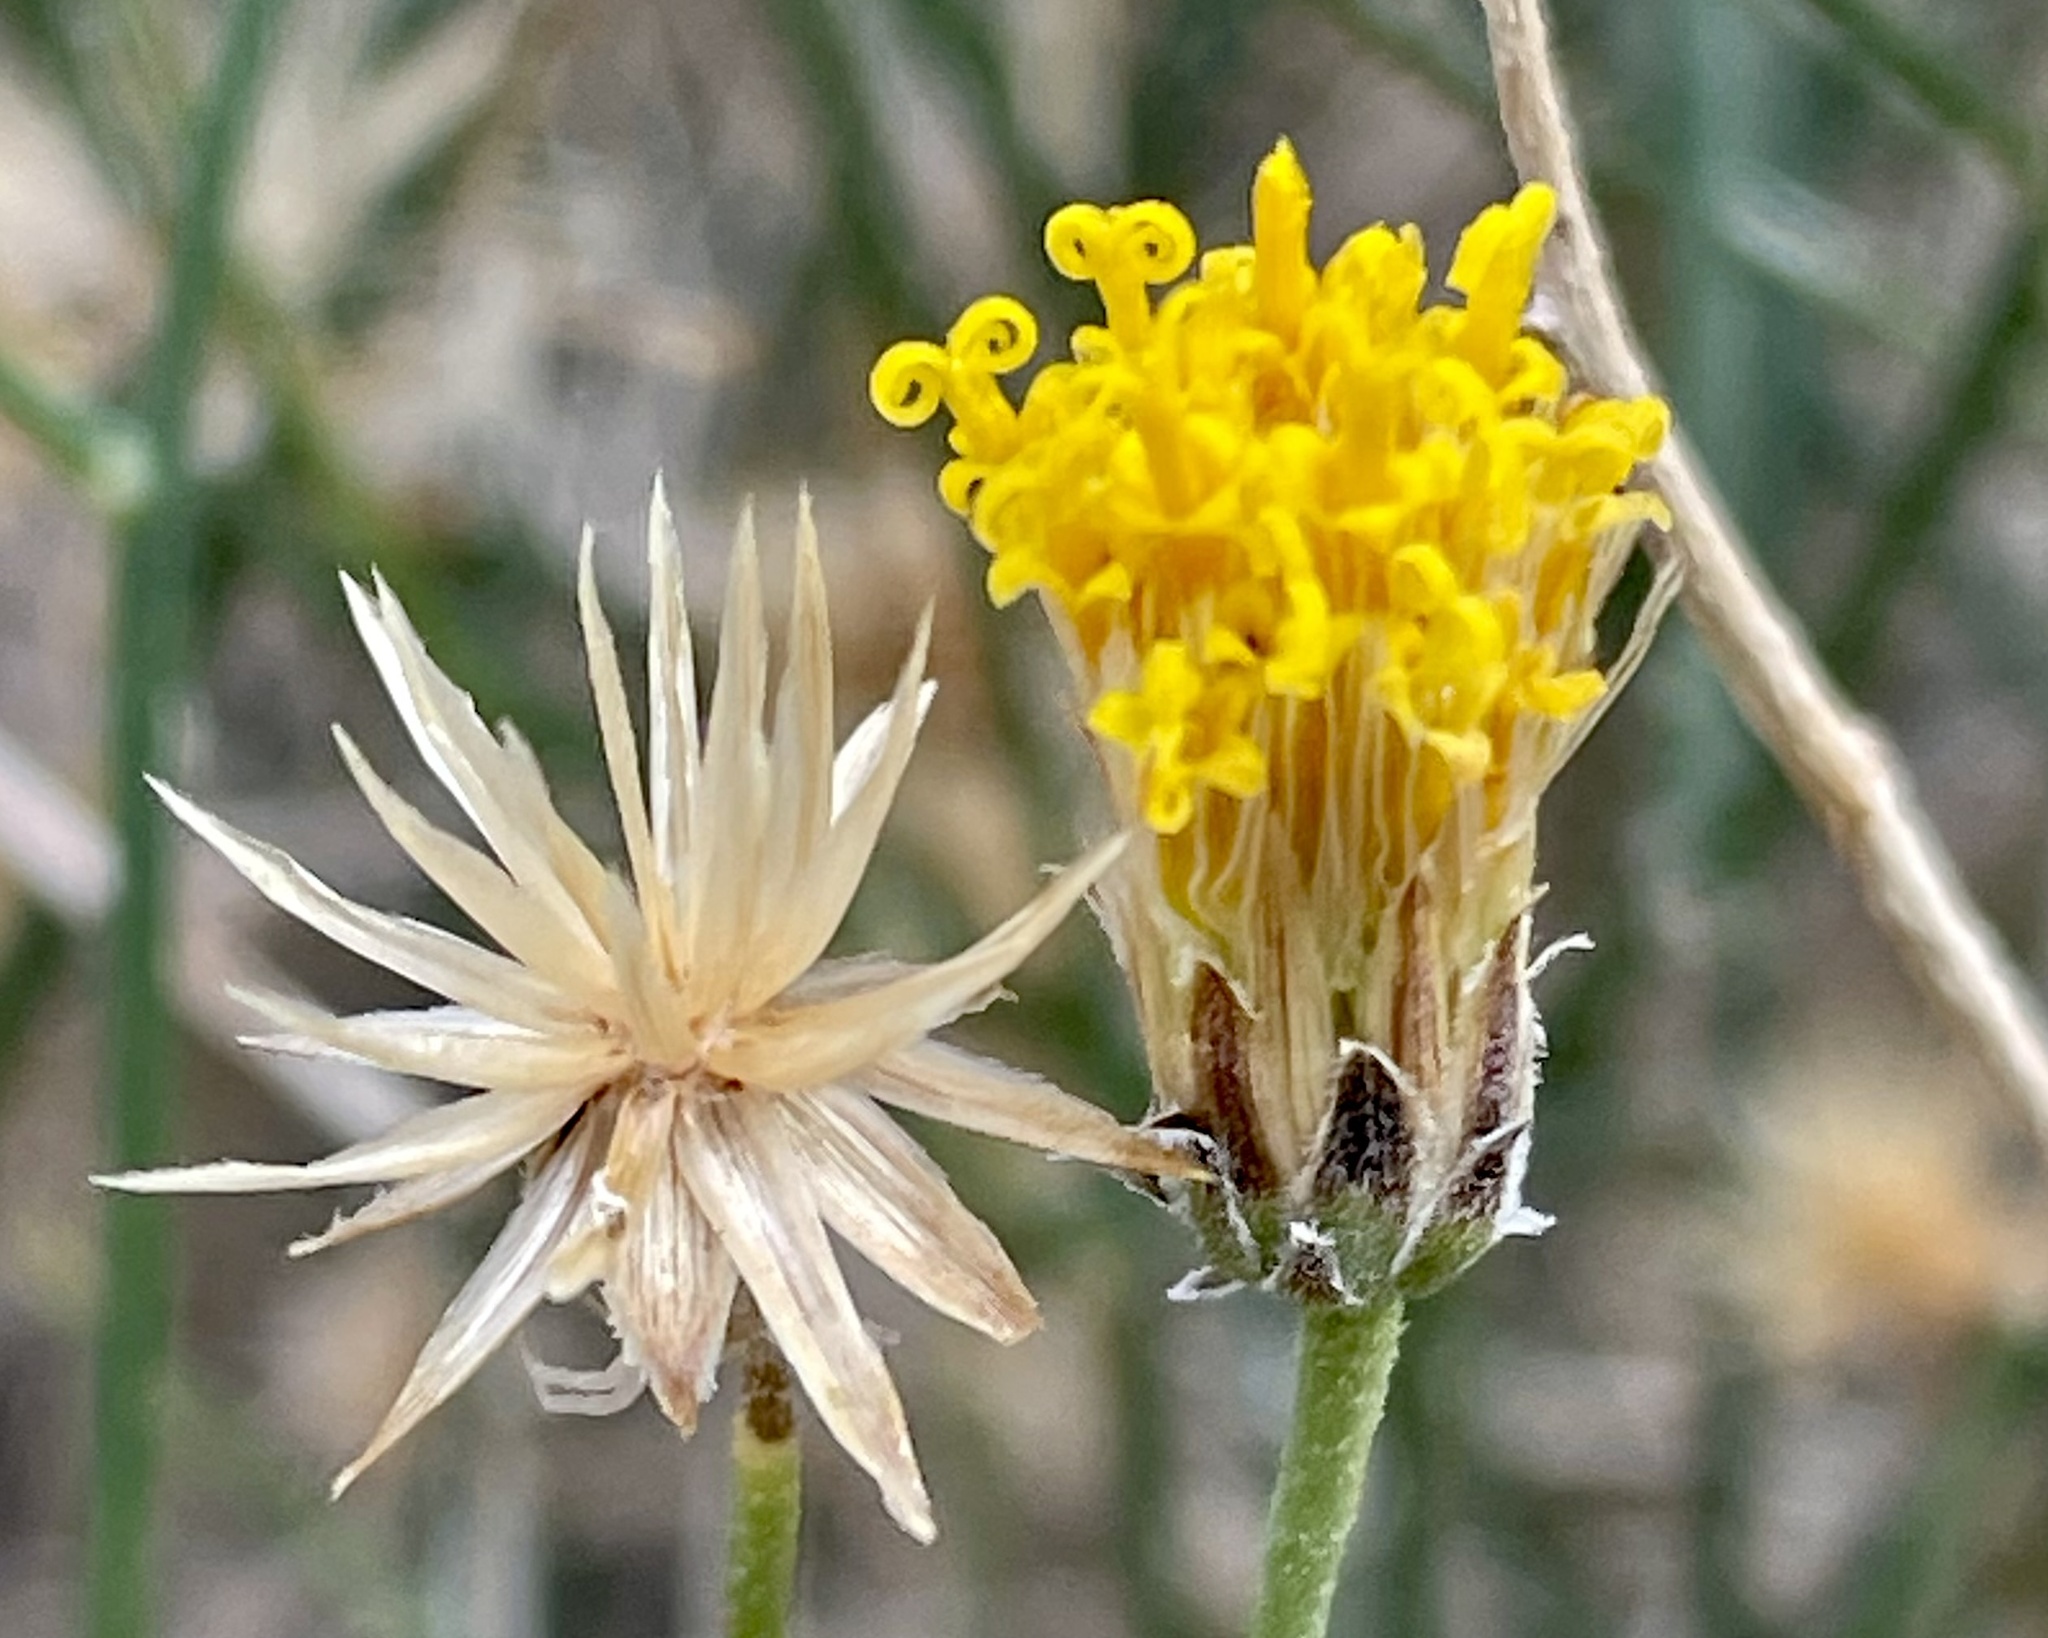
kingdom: Plantae
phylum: Tracheophyta
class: Magnoliopsida
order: Asterales
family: Asteraceae
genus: Bebbia
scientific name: Bebbia juncea
